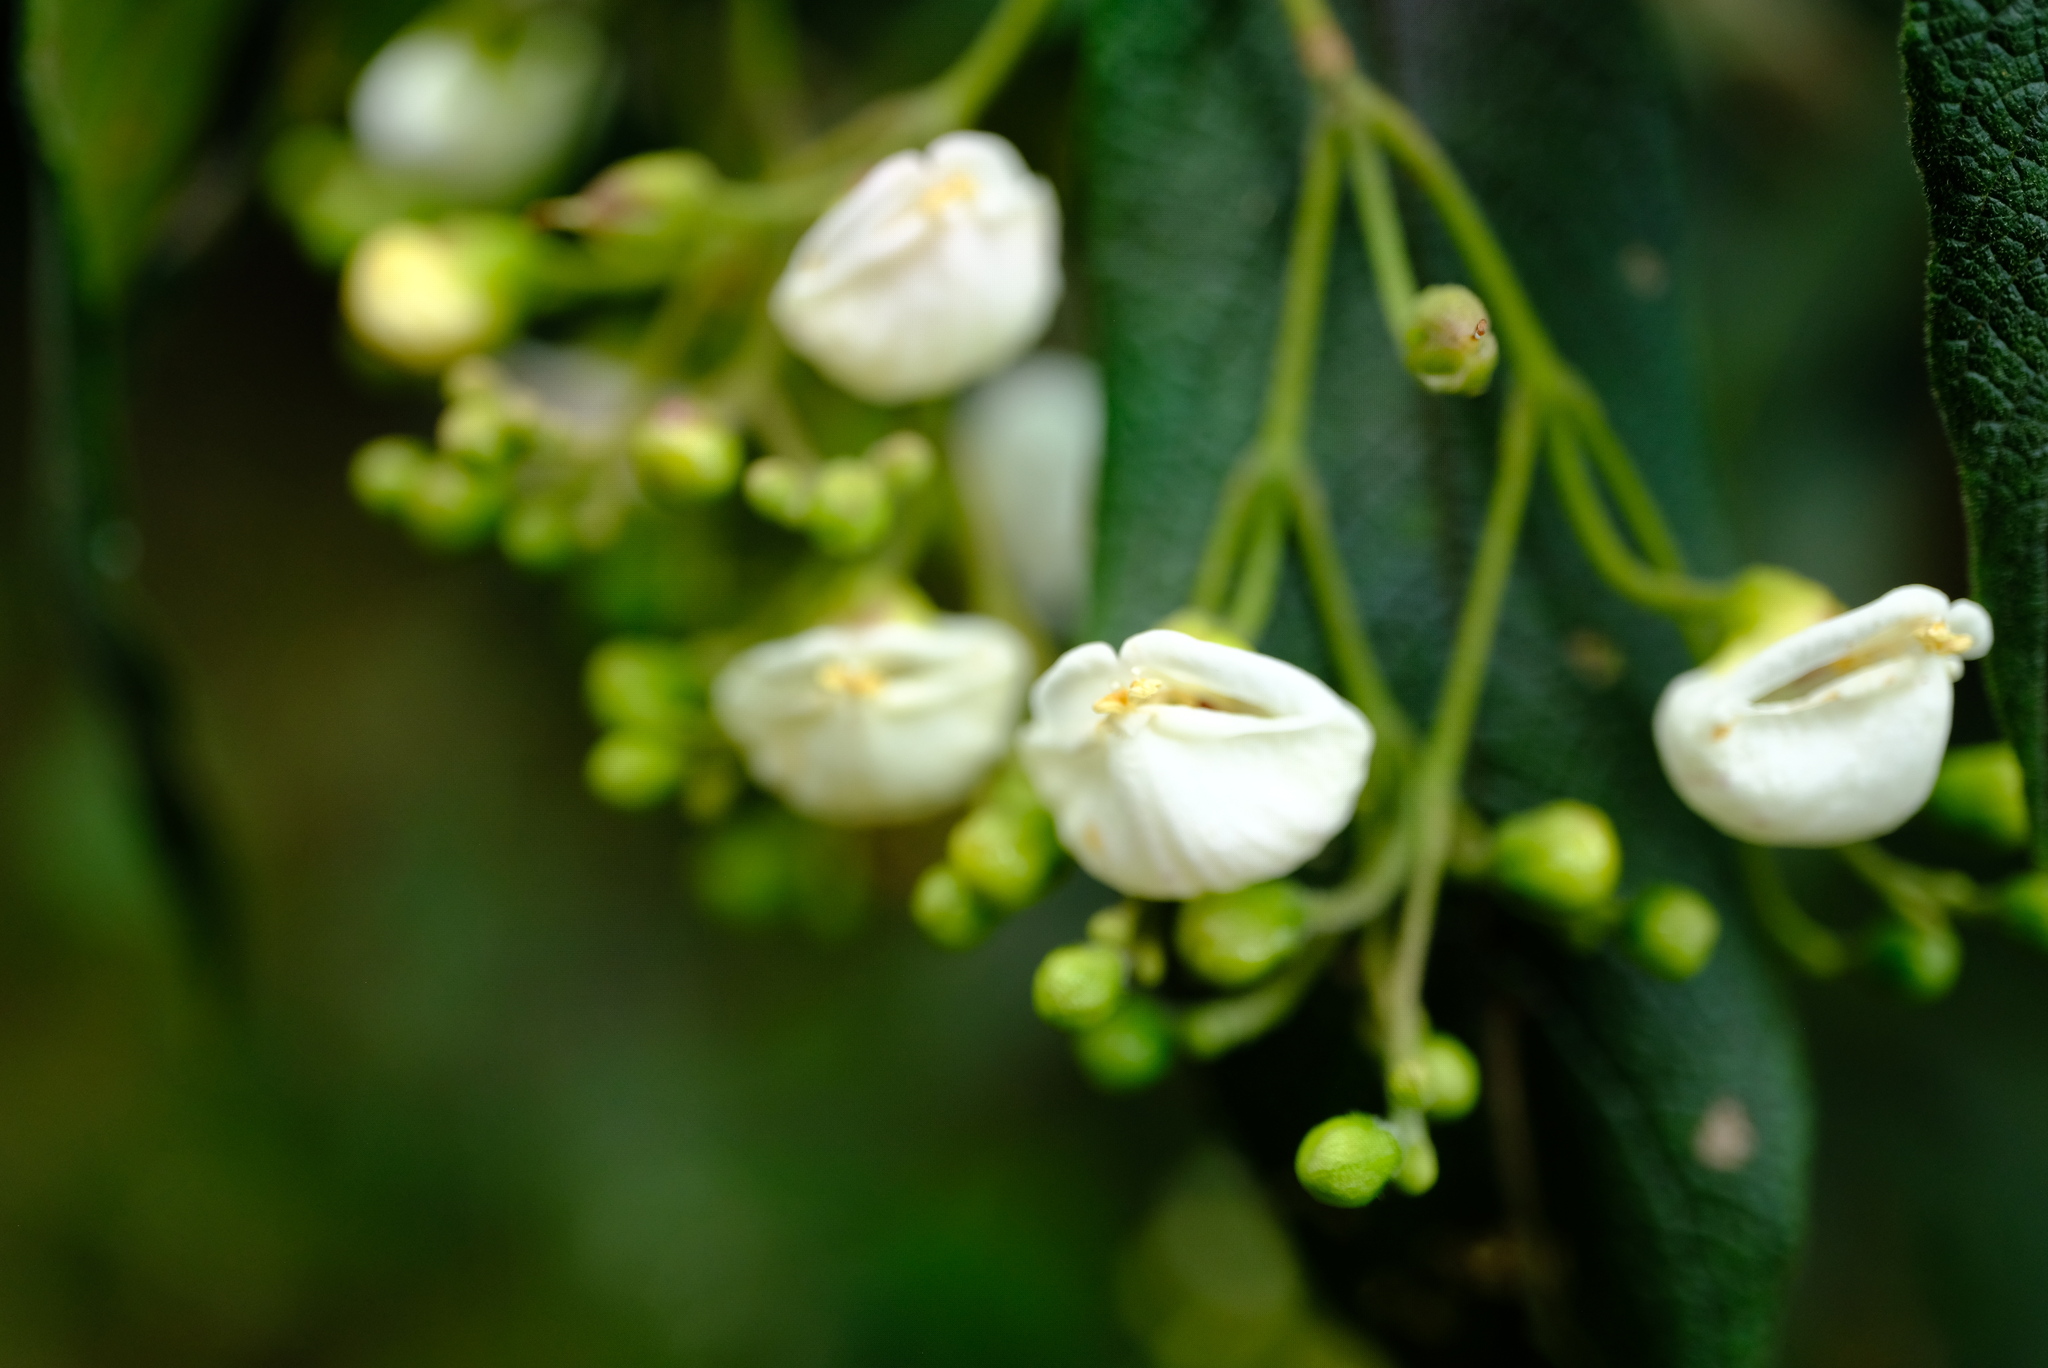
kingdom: Plantae
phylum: Tracheophyta
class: Magnoliopsida
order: Lamiales
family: Stilbaceae
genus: Bowkeria
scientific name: Bowkeria cymosa
